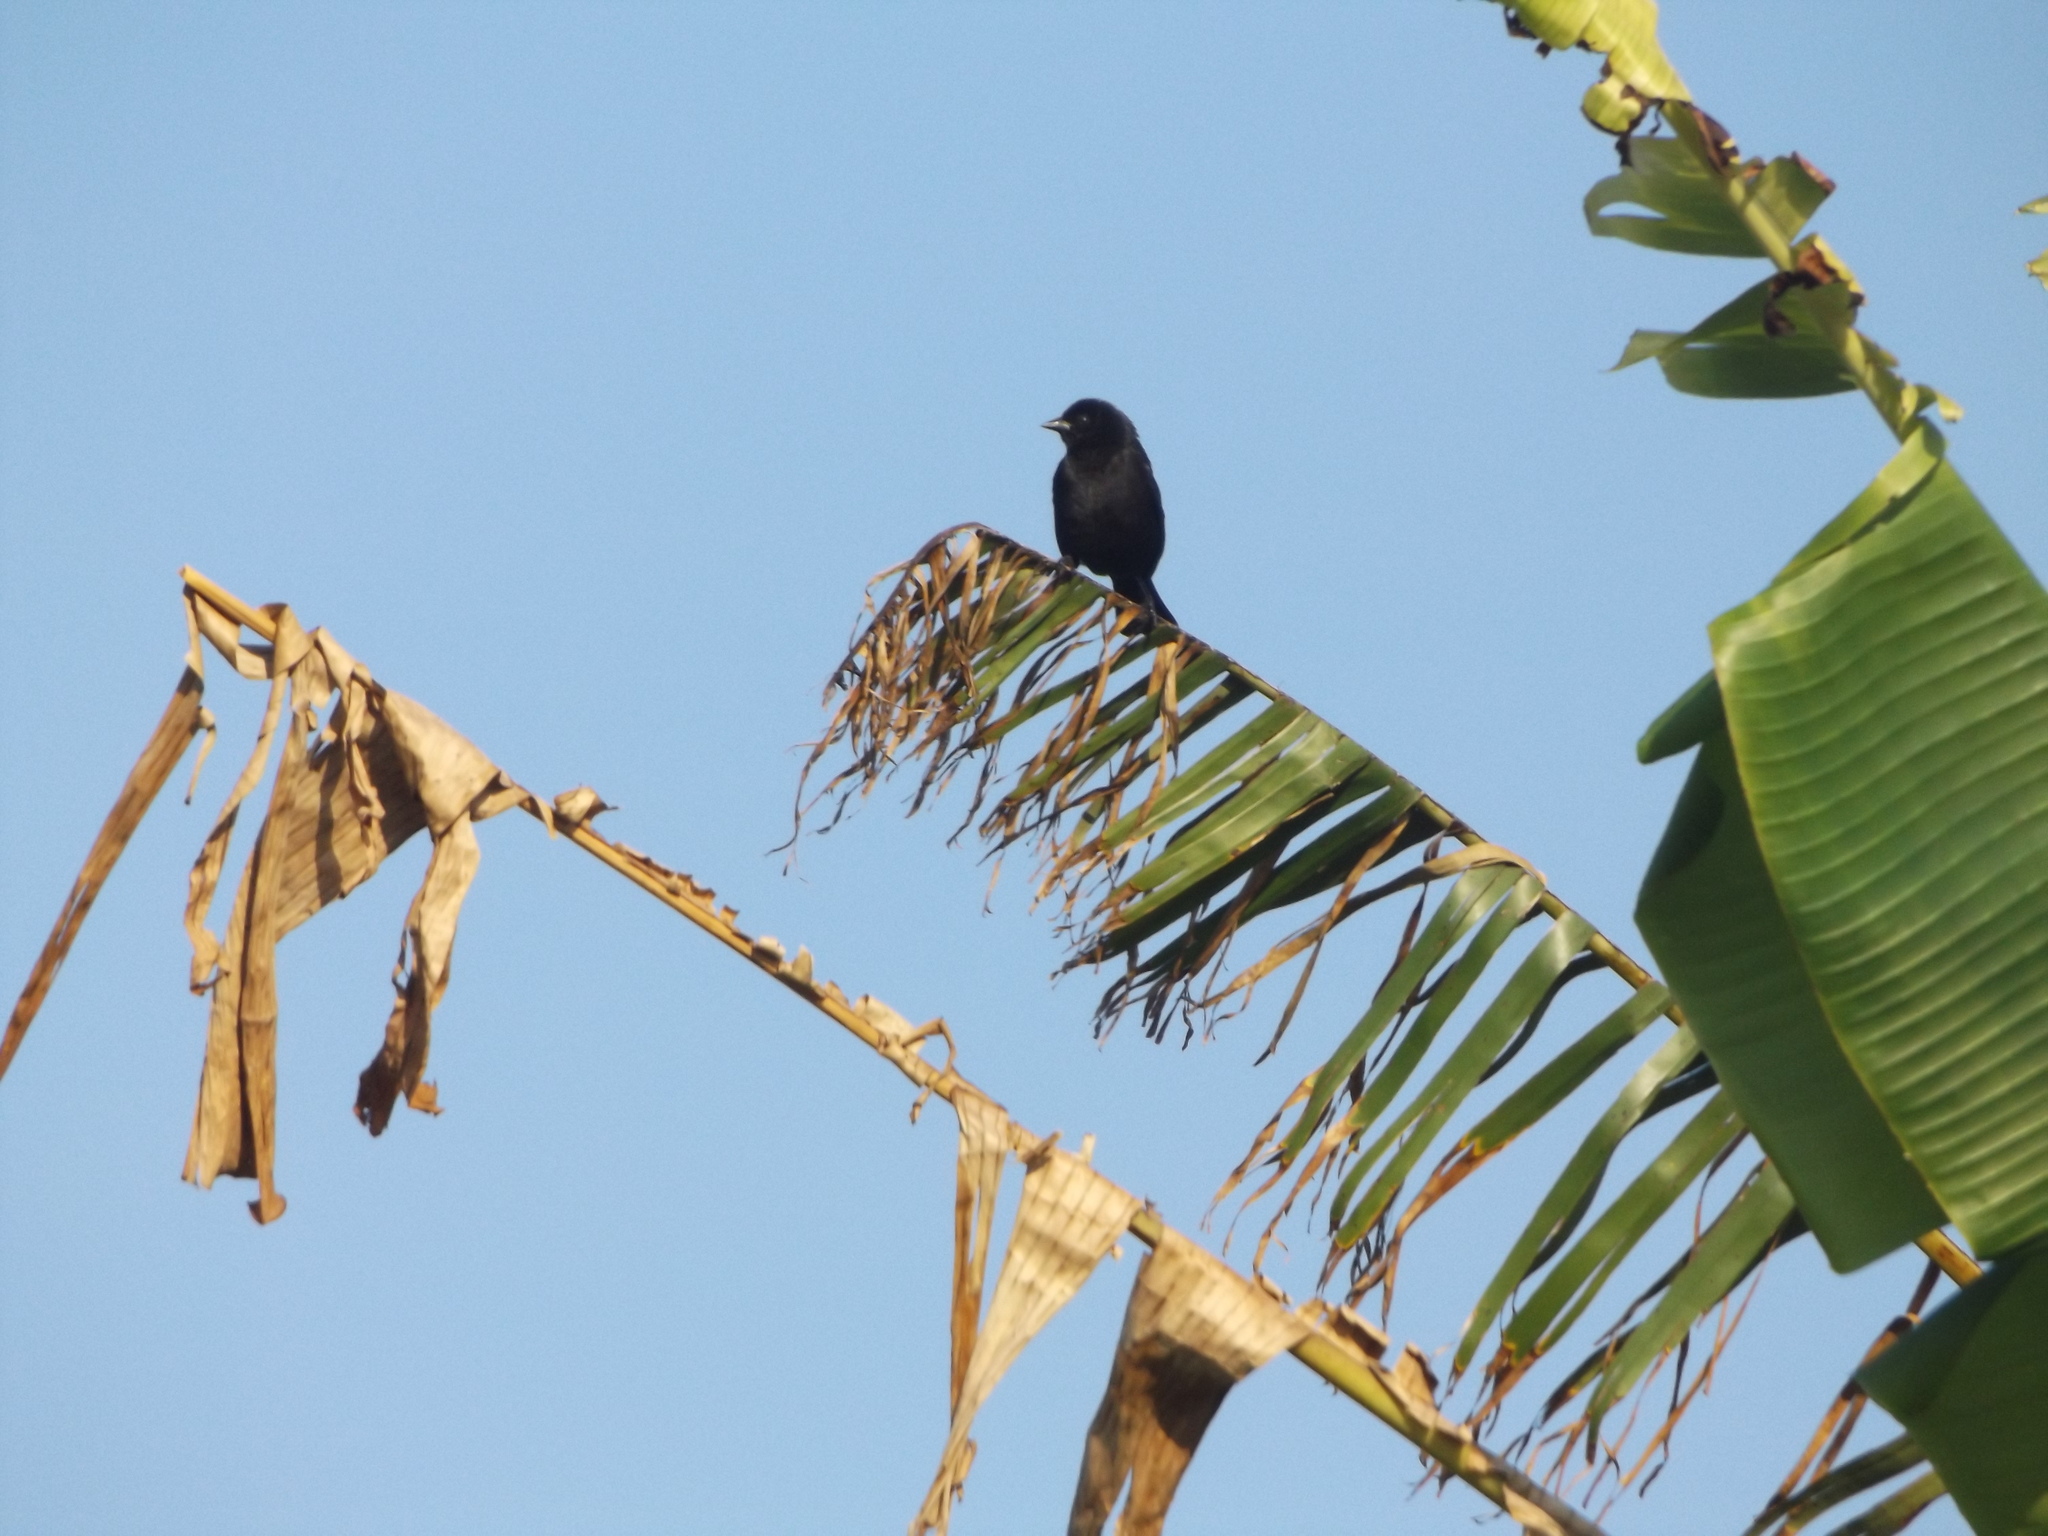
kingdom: Animalia
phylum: Chordata
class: Aves
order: Passeriformes
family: Icteridae
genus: Molothrus
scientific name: Molothrus bonariensis
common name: Shiny cowbird
